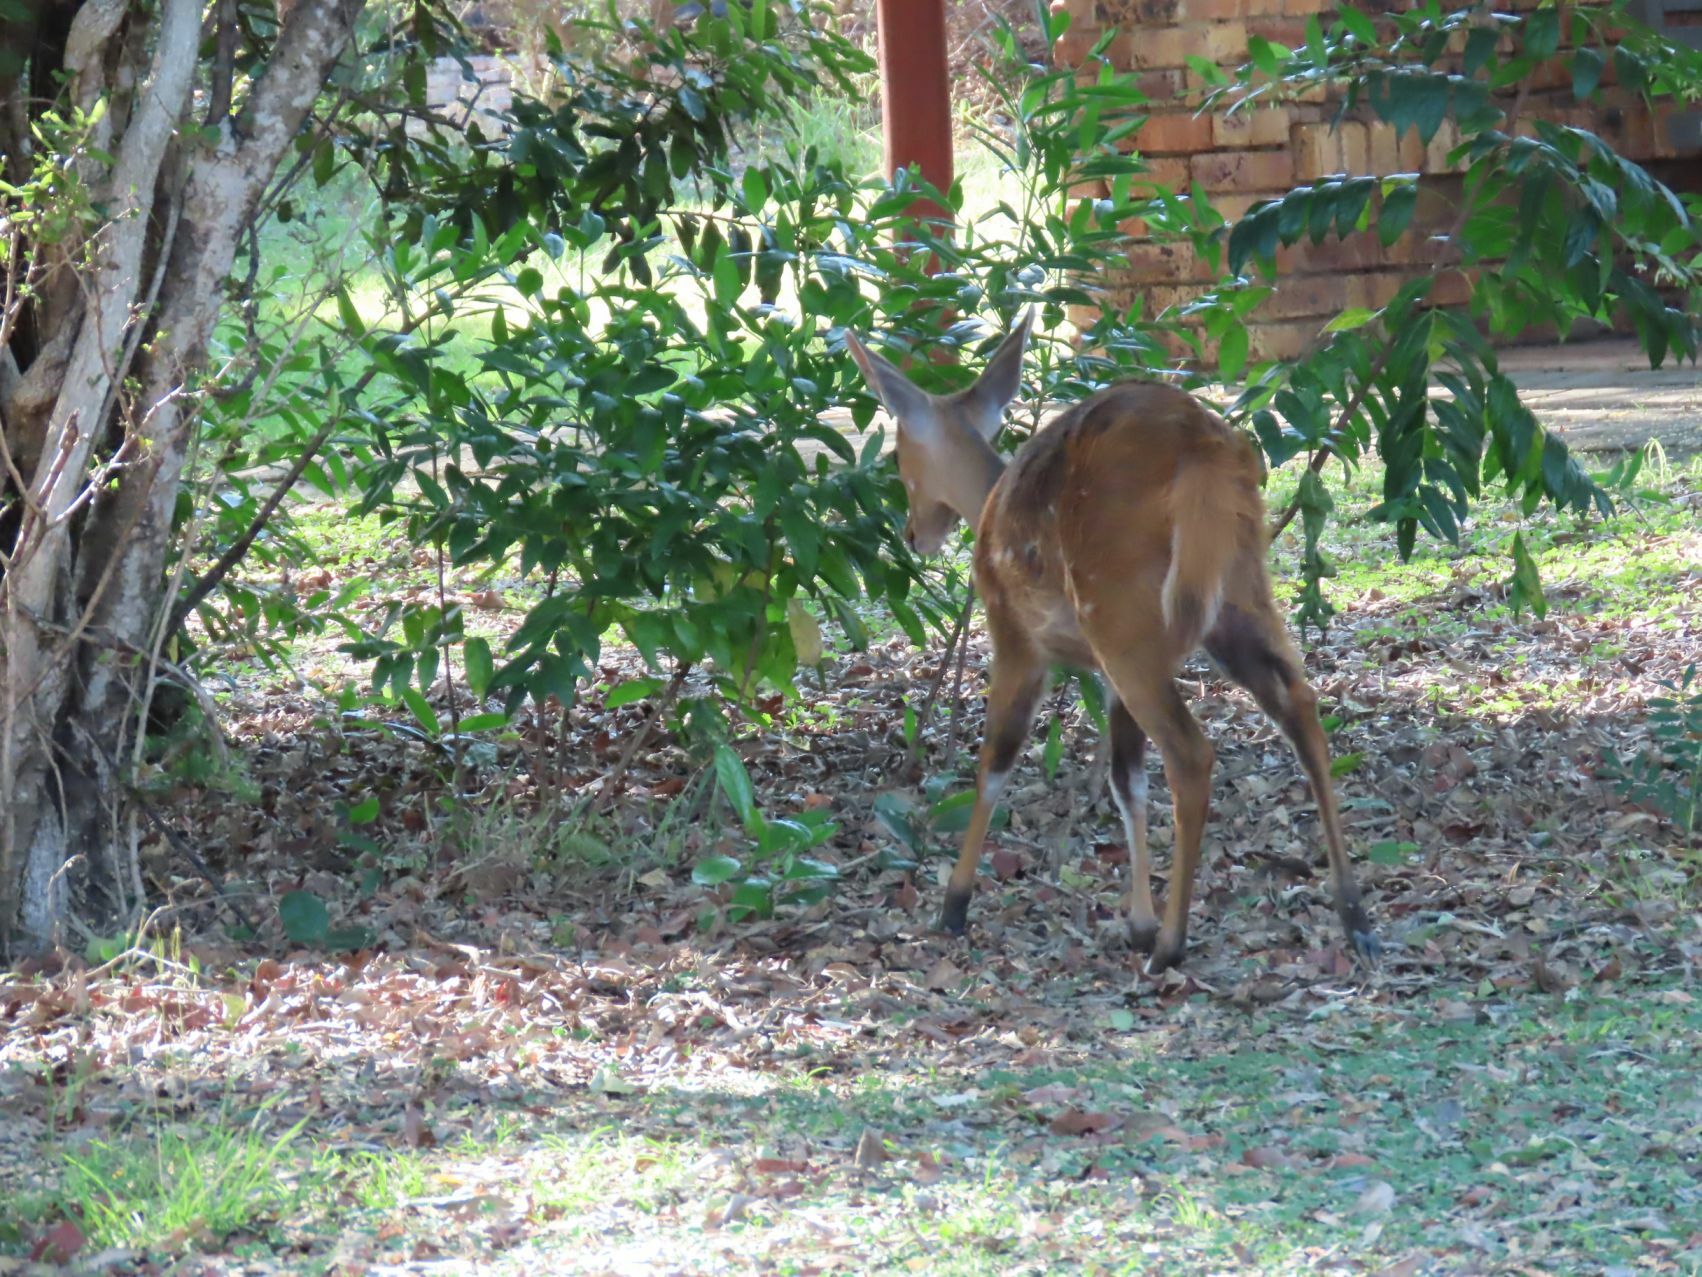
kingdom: Animalia
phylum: Chordata
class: Mammalia
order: Artiodactyla
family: Bovidae
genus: Tragelaphus
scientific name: Tragelaphus scriptus
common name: Bushbuck
